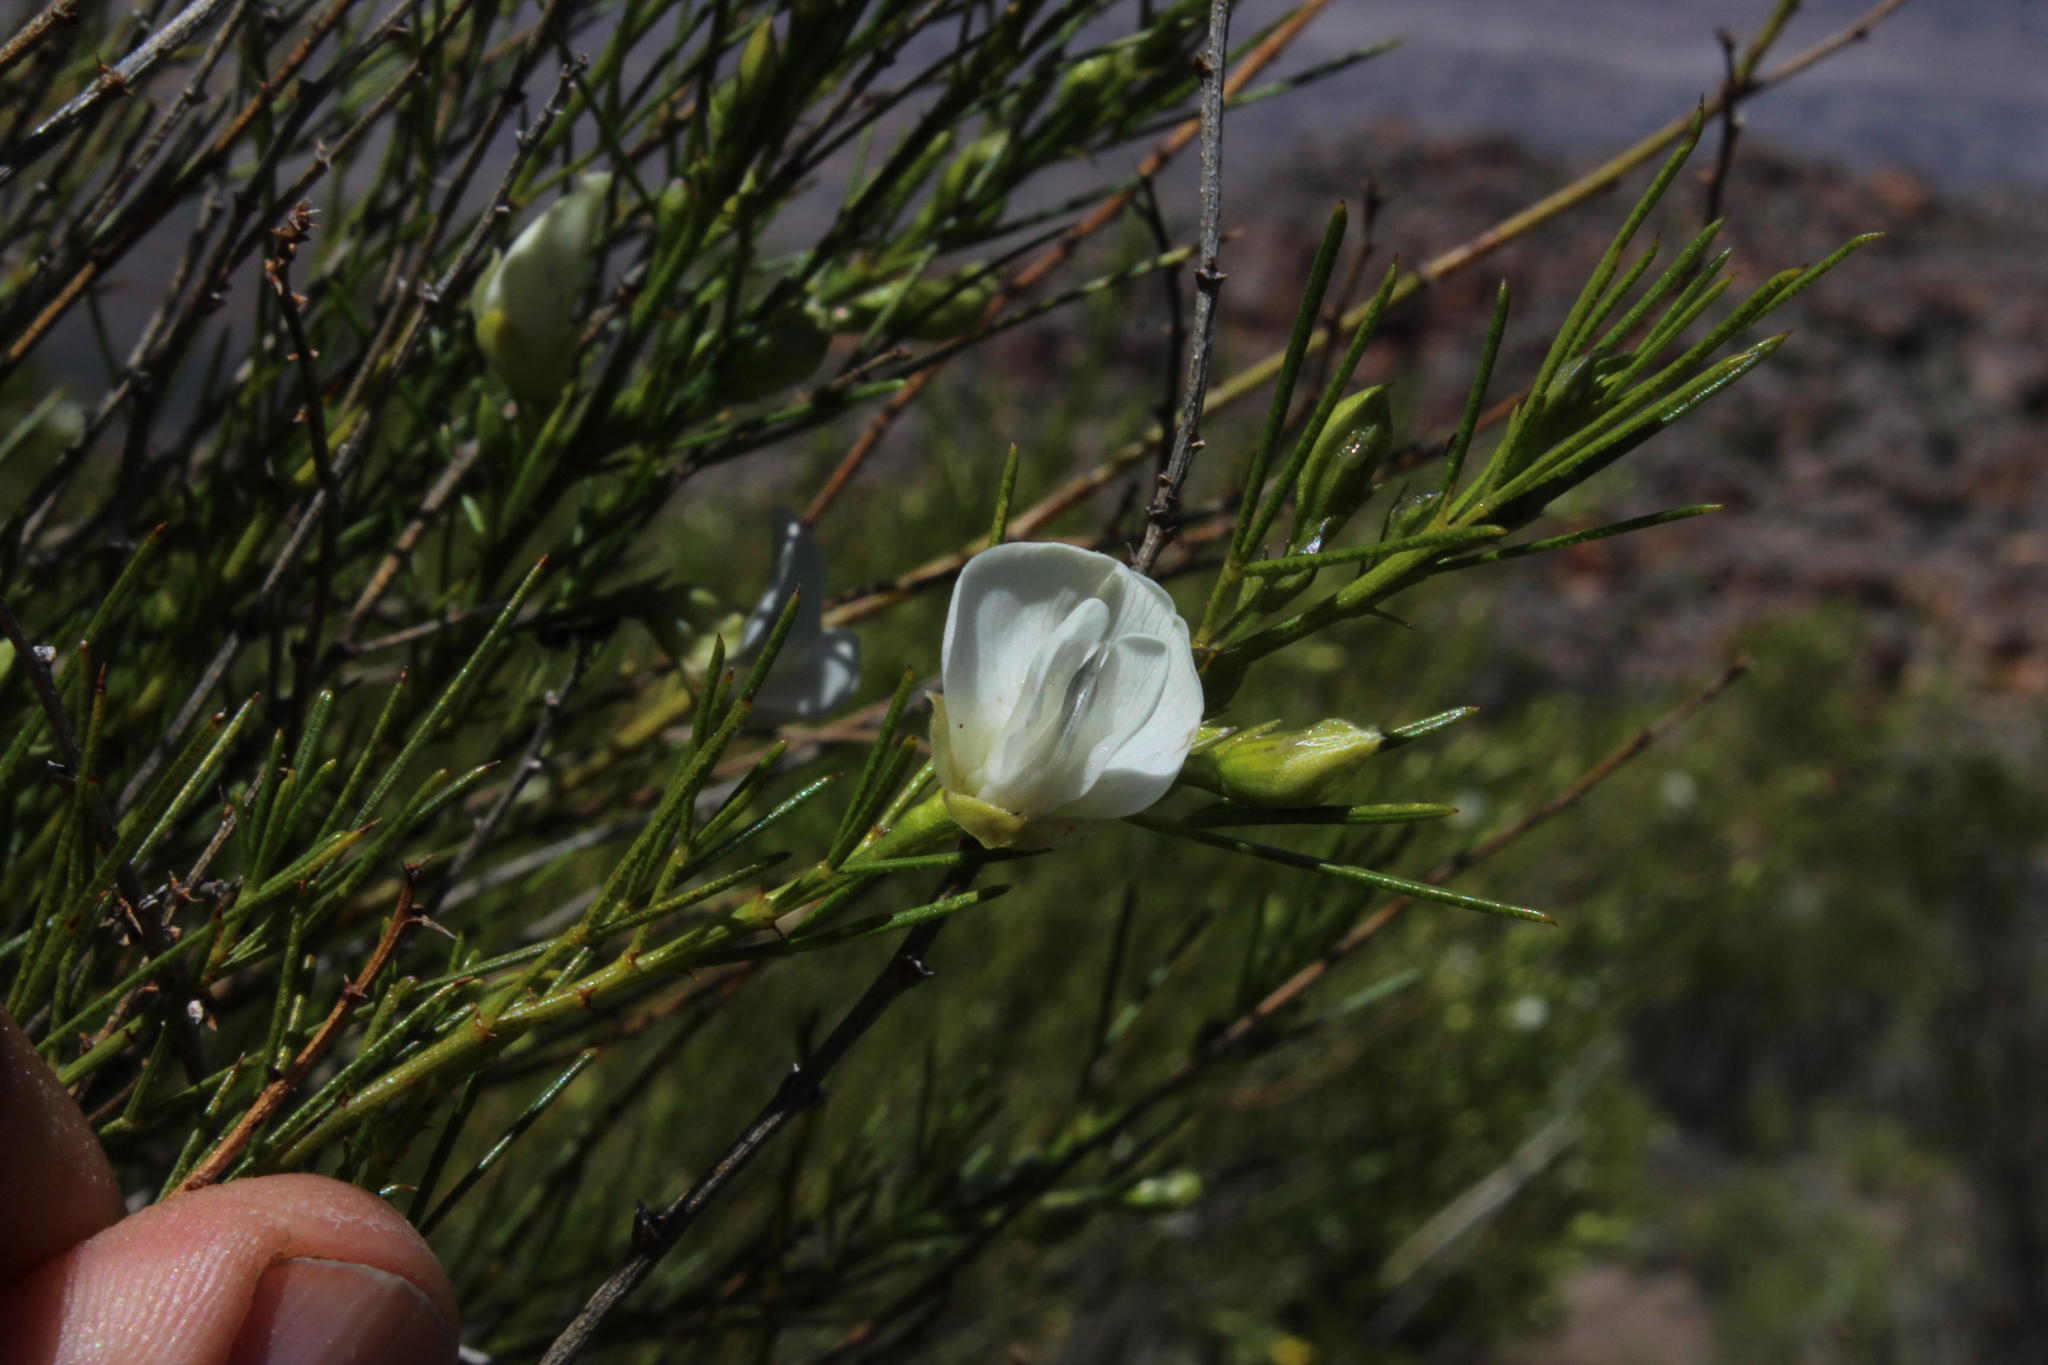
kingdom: Plantae
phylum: Tracheophyta
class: Magnoliopsida
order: Fabales
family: Fabaceae
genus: Psoralea
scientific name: Psoralea
